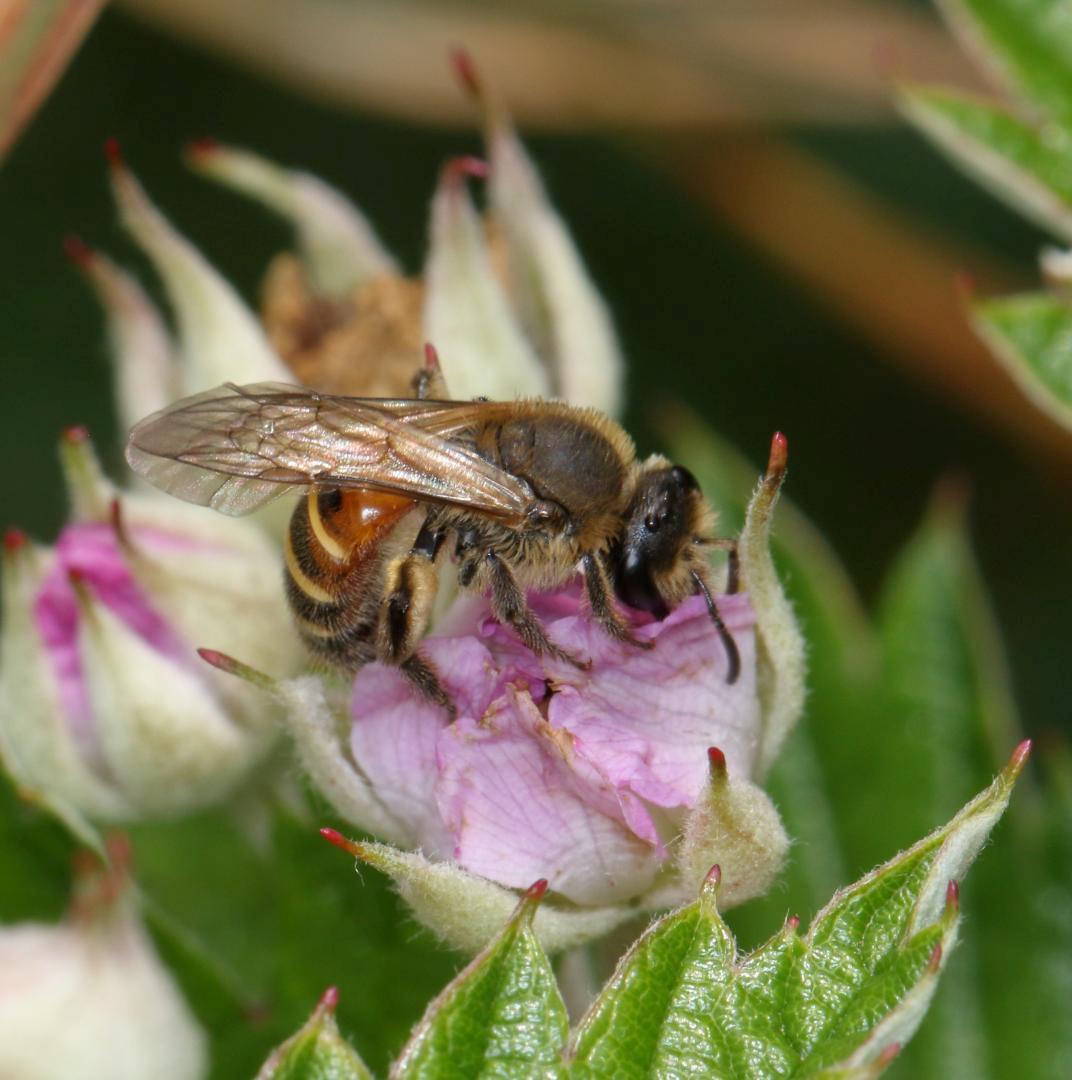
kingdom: Plantae
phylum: Tracheophyta
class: Magnoliopsida
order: Rosales
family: Rosaceae
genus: Rubus
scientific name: Rubus ludwigii
